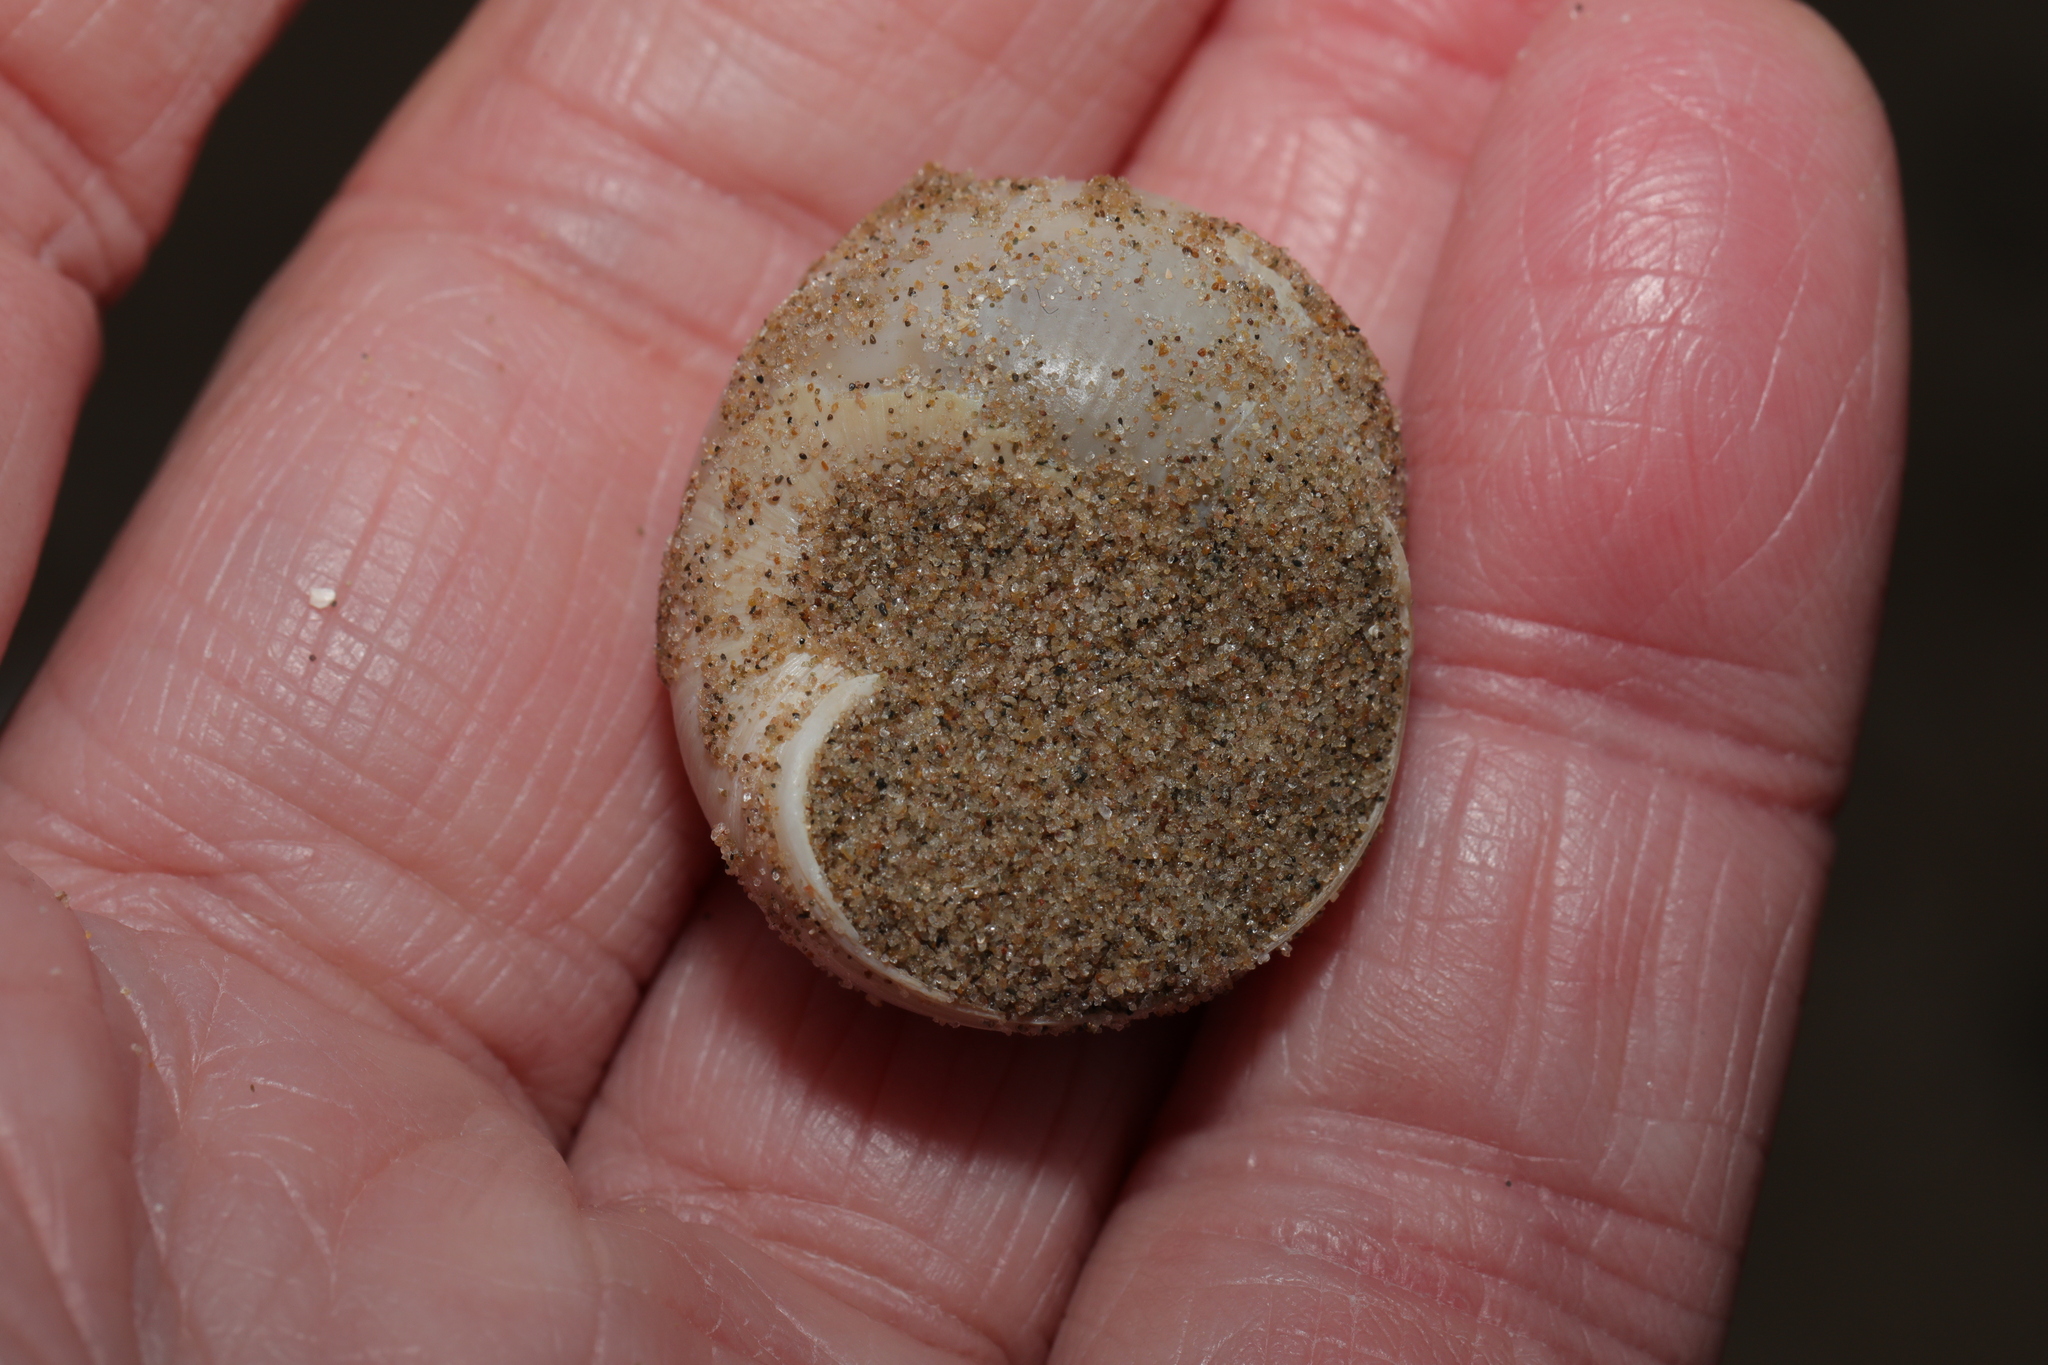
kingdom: Animalia
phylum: Mollusca
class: Gastropoda
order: Littorinimorpha
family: Naticidae
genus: Euspira
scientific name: Euspira catena
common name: Necklace shell
